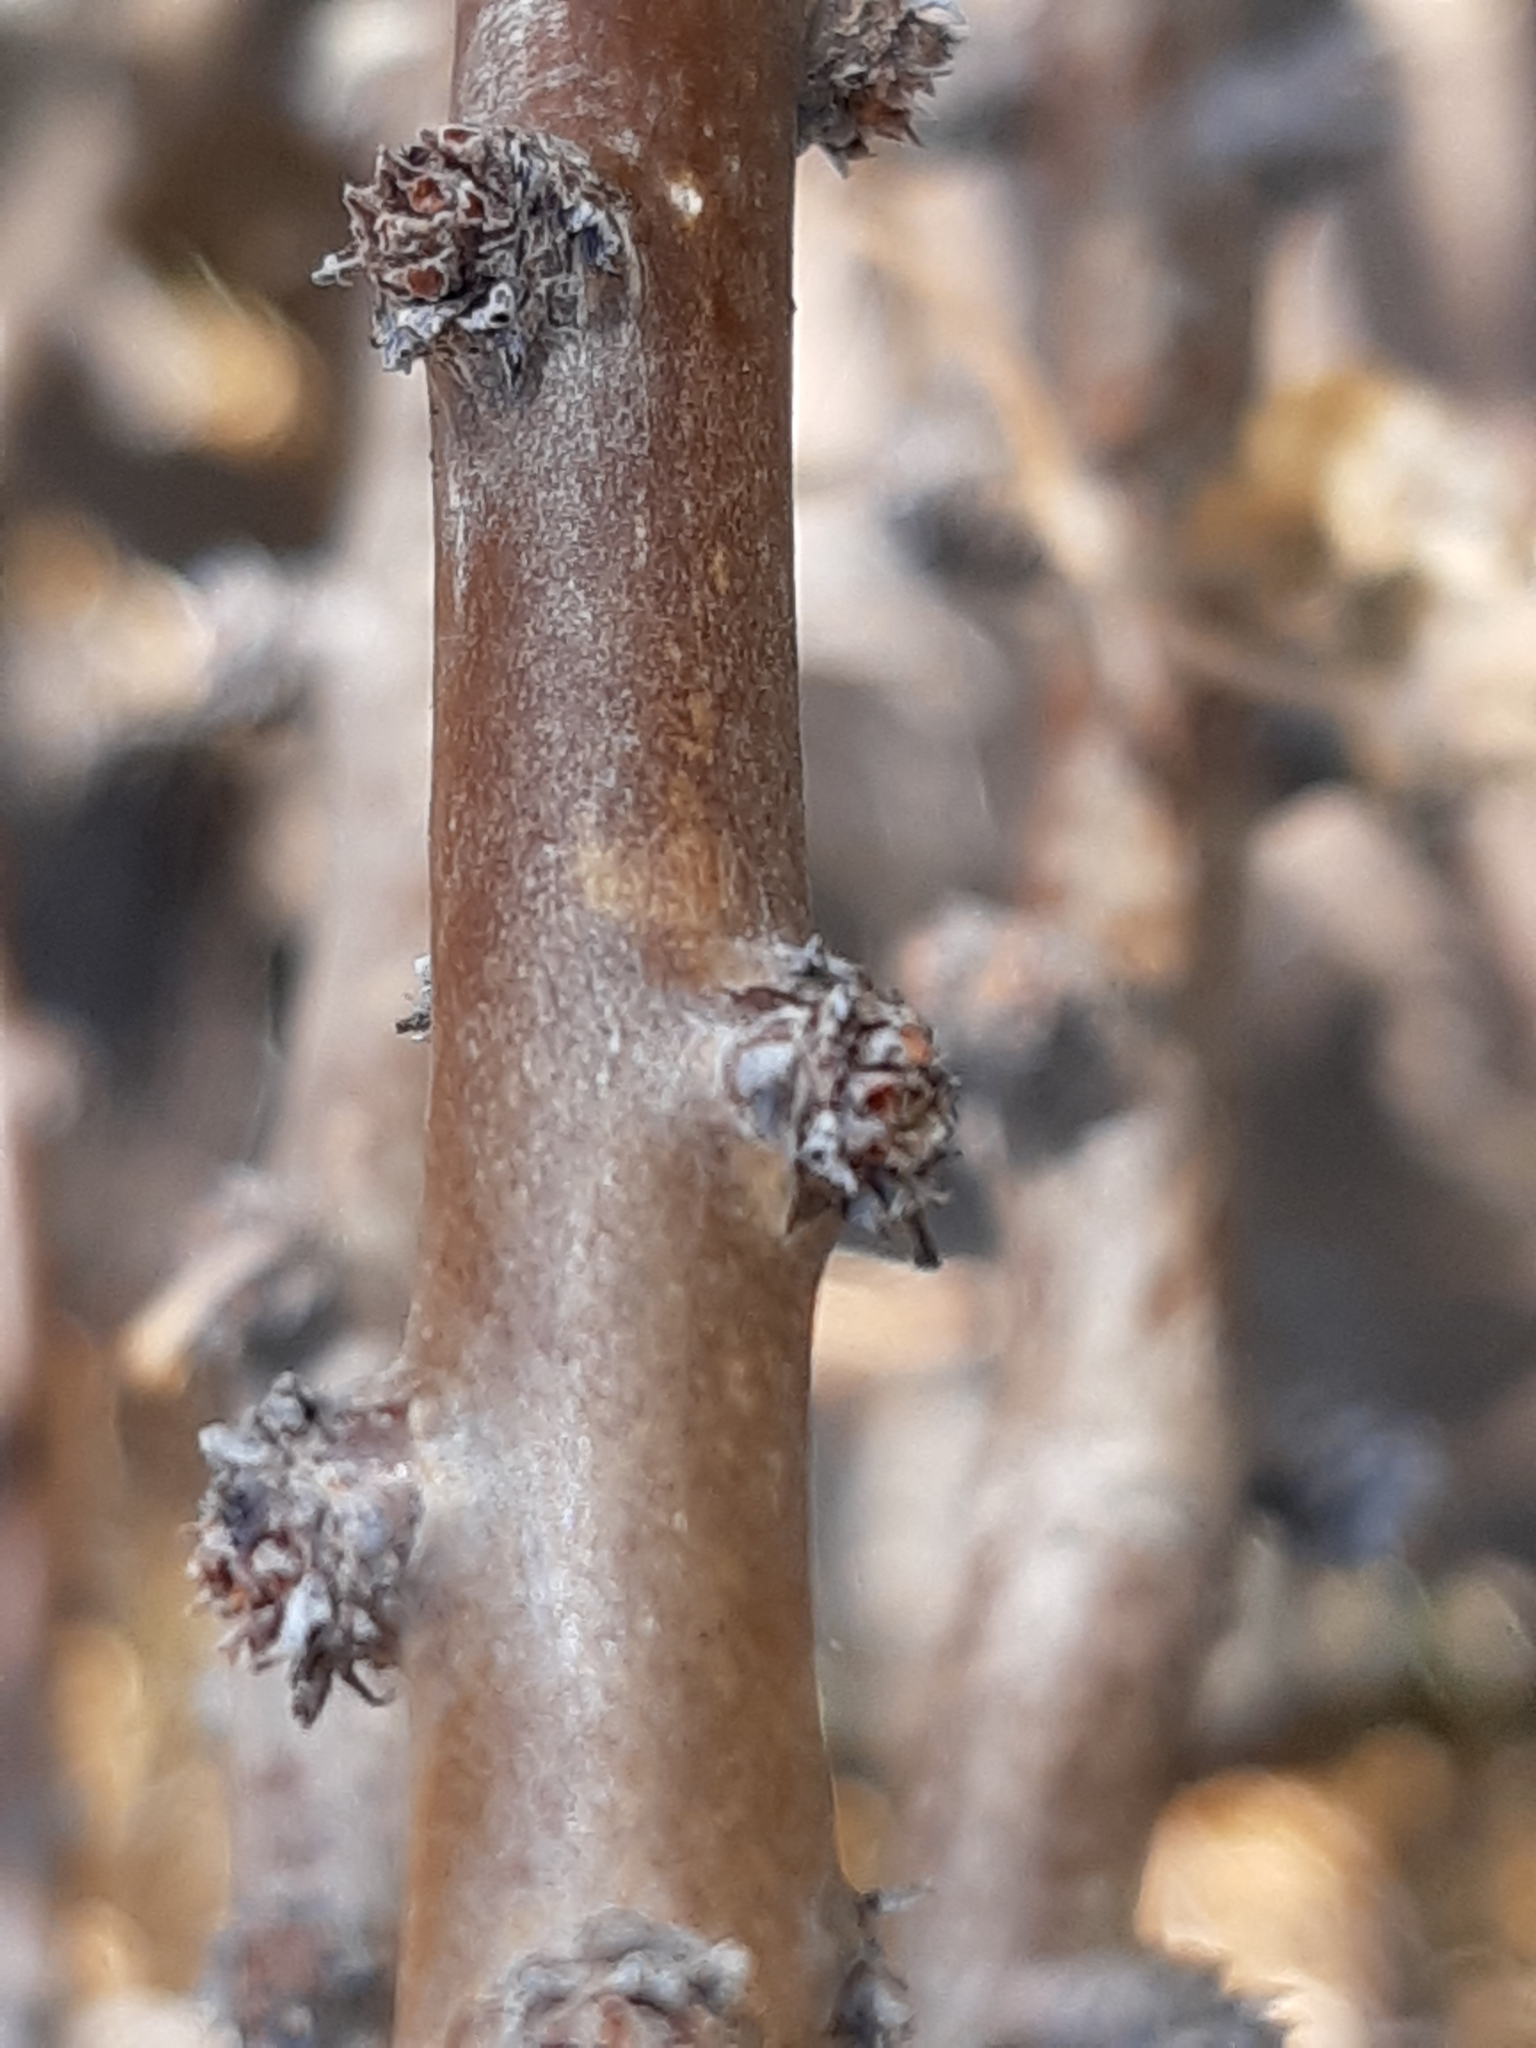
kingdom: Plantae
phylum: Tracheophyta
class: Magnoliopsida
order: Malpighiales
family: Euphorbiaceae
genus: Jatropha
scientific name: Jatropha dioica
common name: Leatherstem
